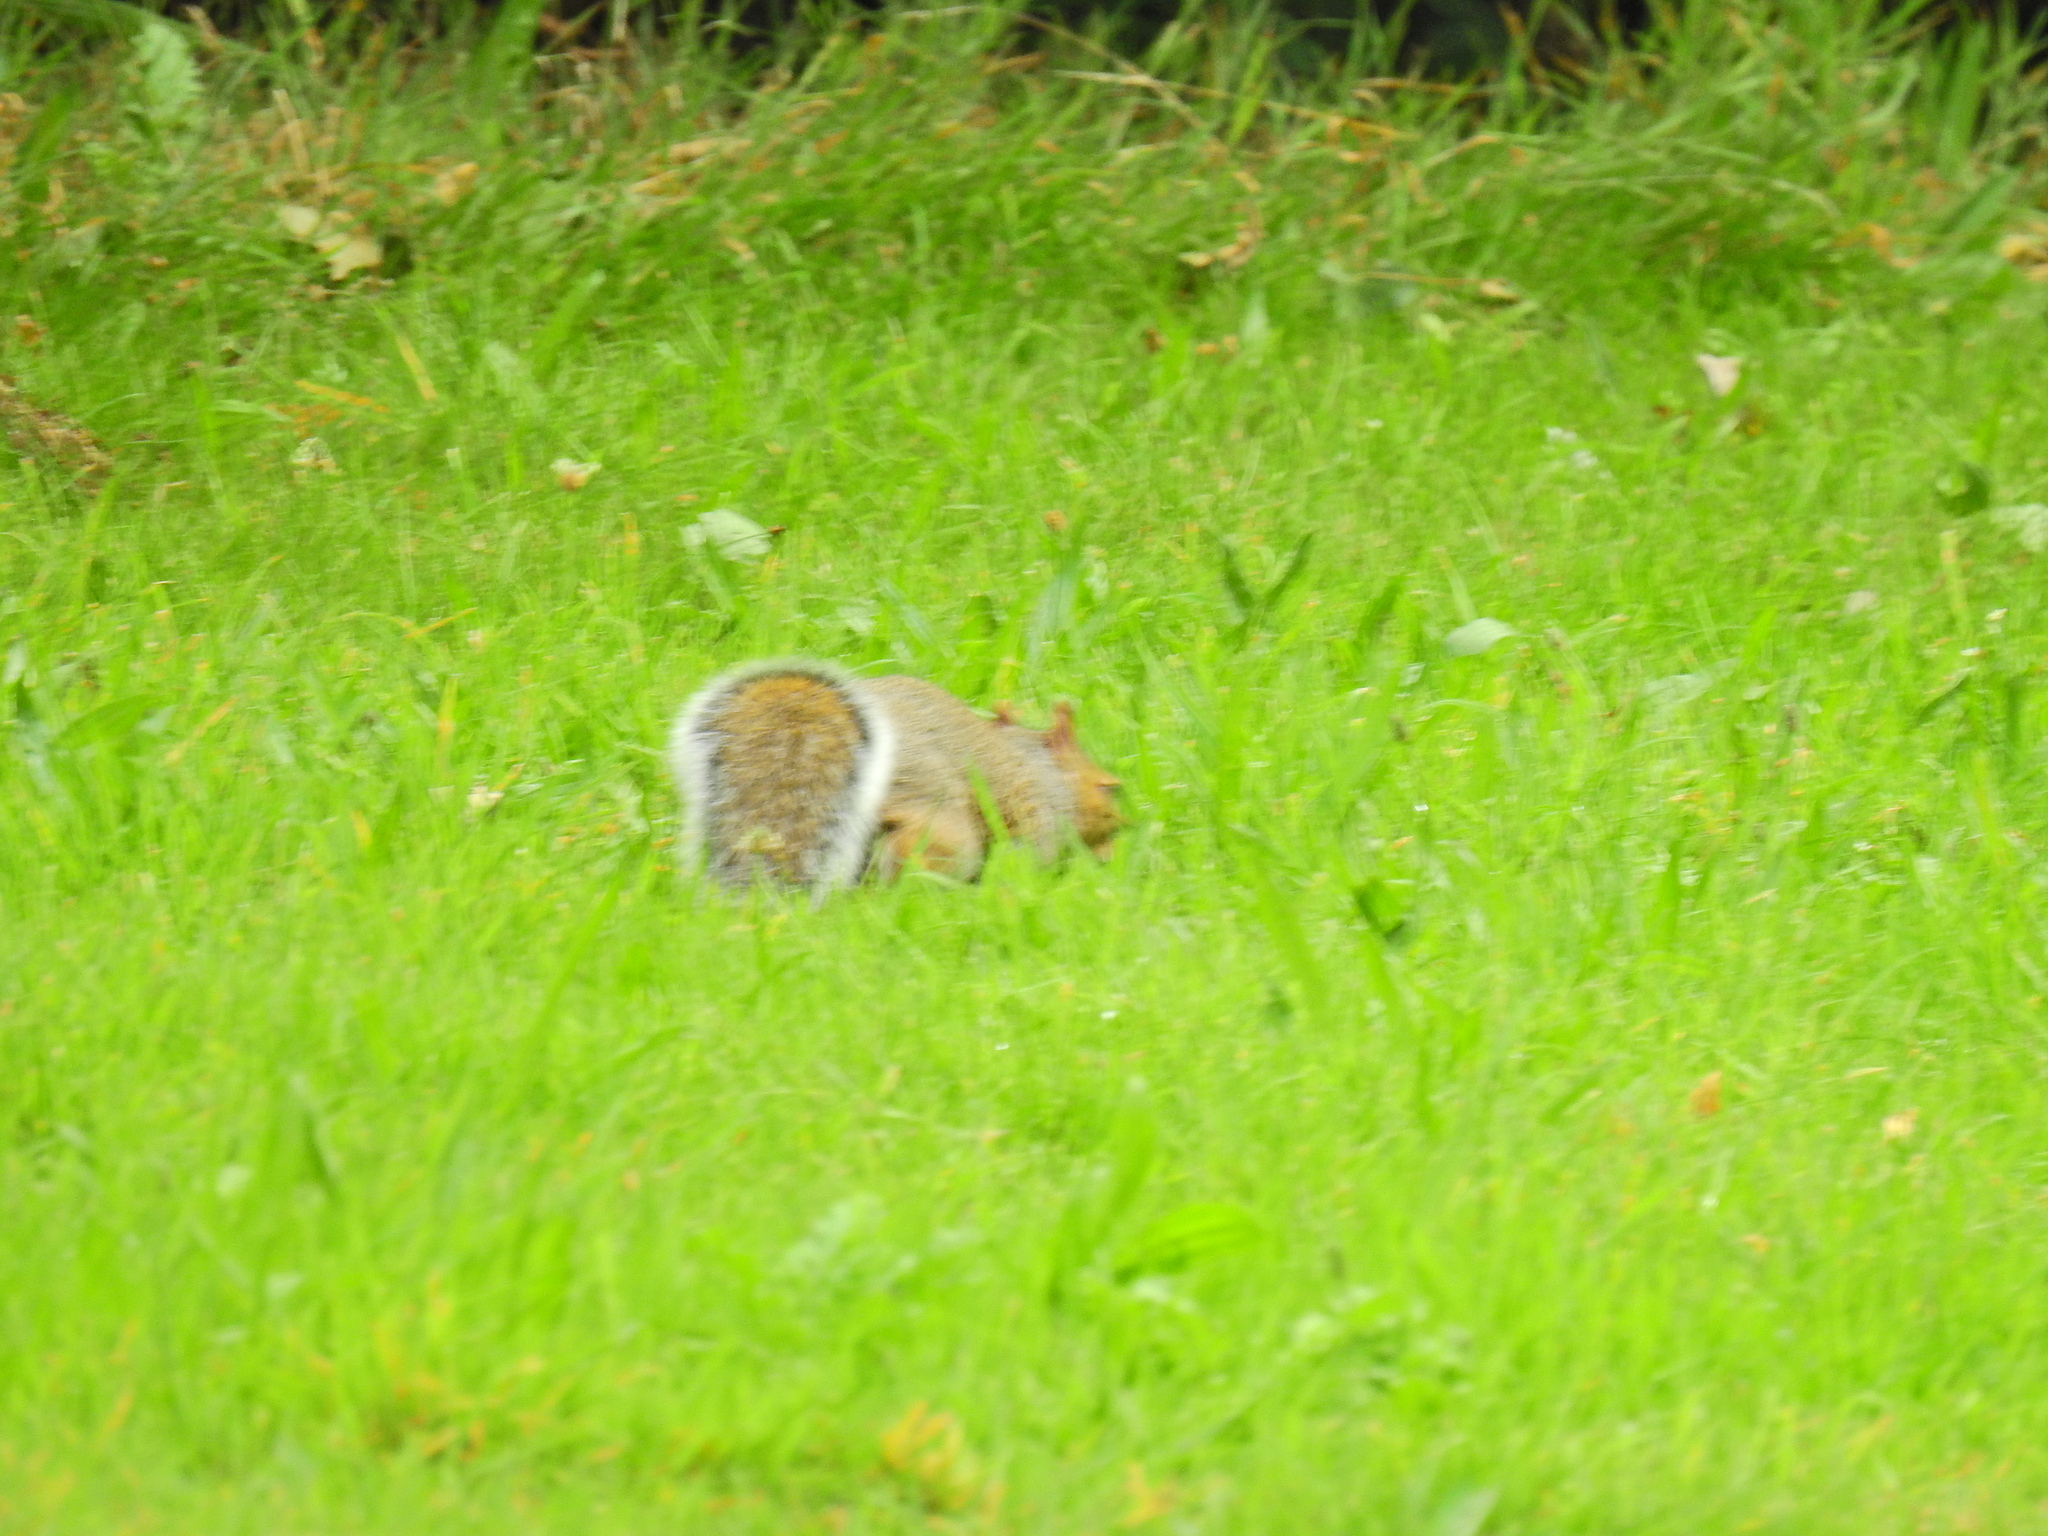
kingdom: Animalia
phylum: Chordata
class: Mammalia
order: Rodentia
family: Sciuridae
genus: Sciurus
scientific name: Sciurus carolinensis
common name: Eastern gray squirrel
